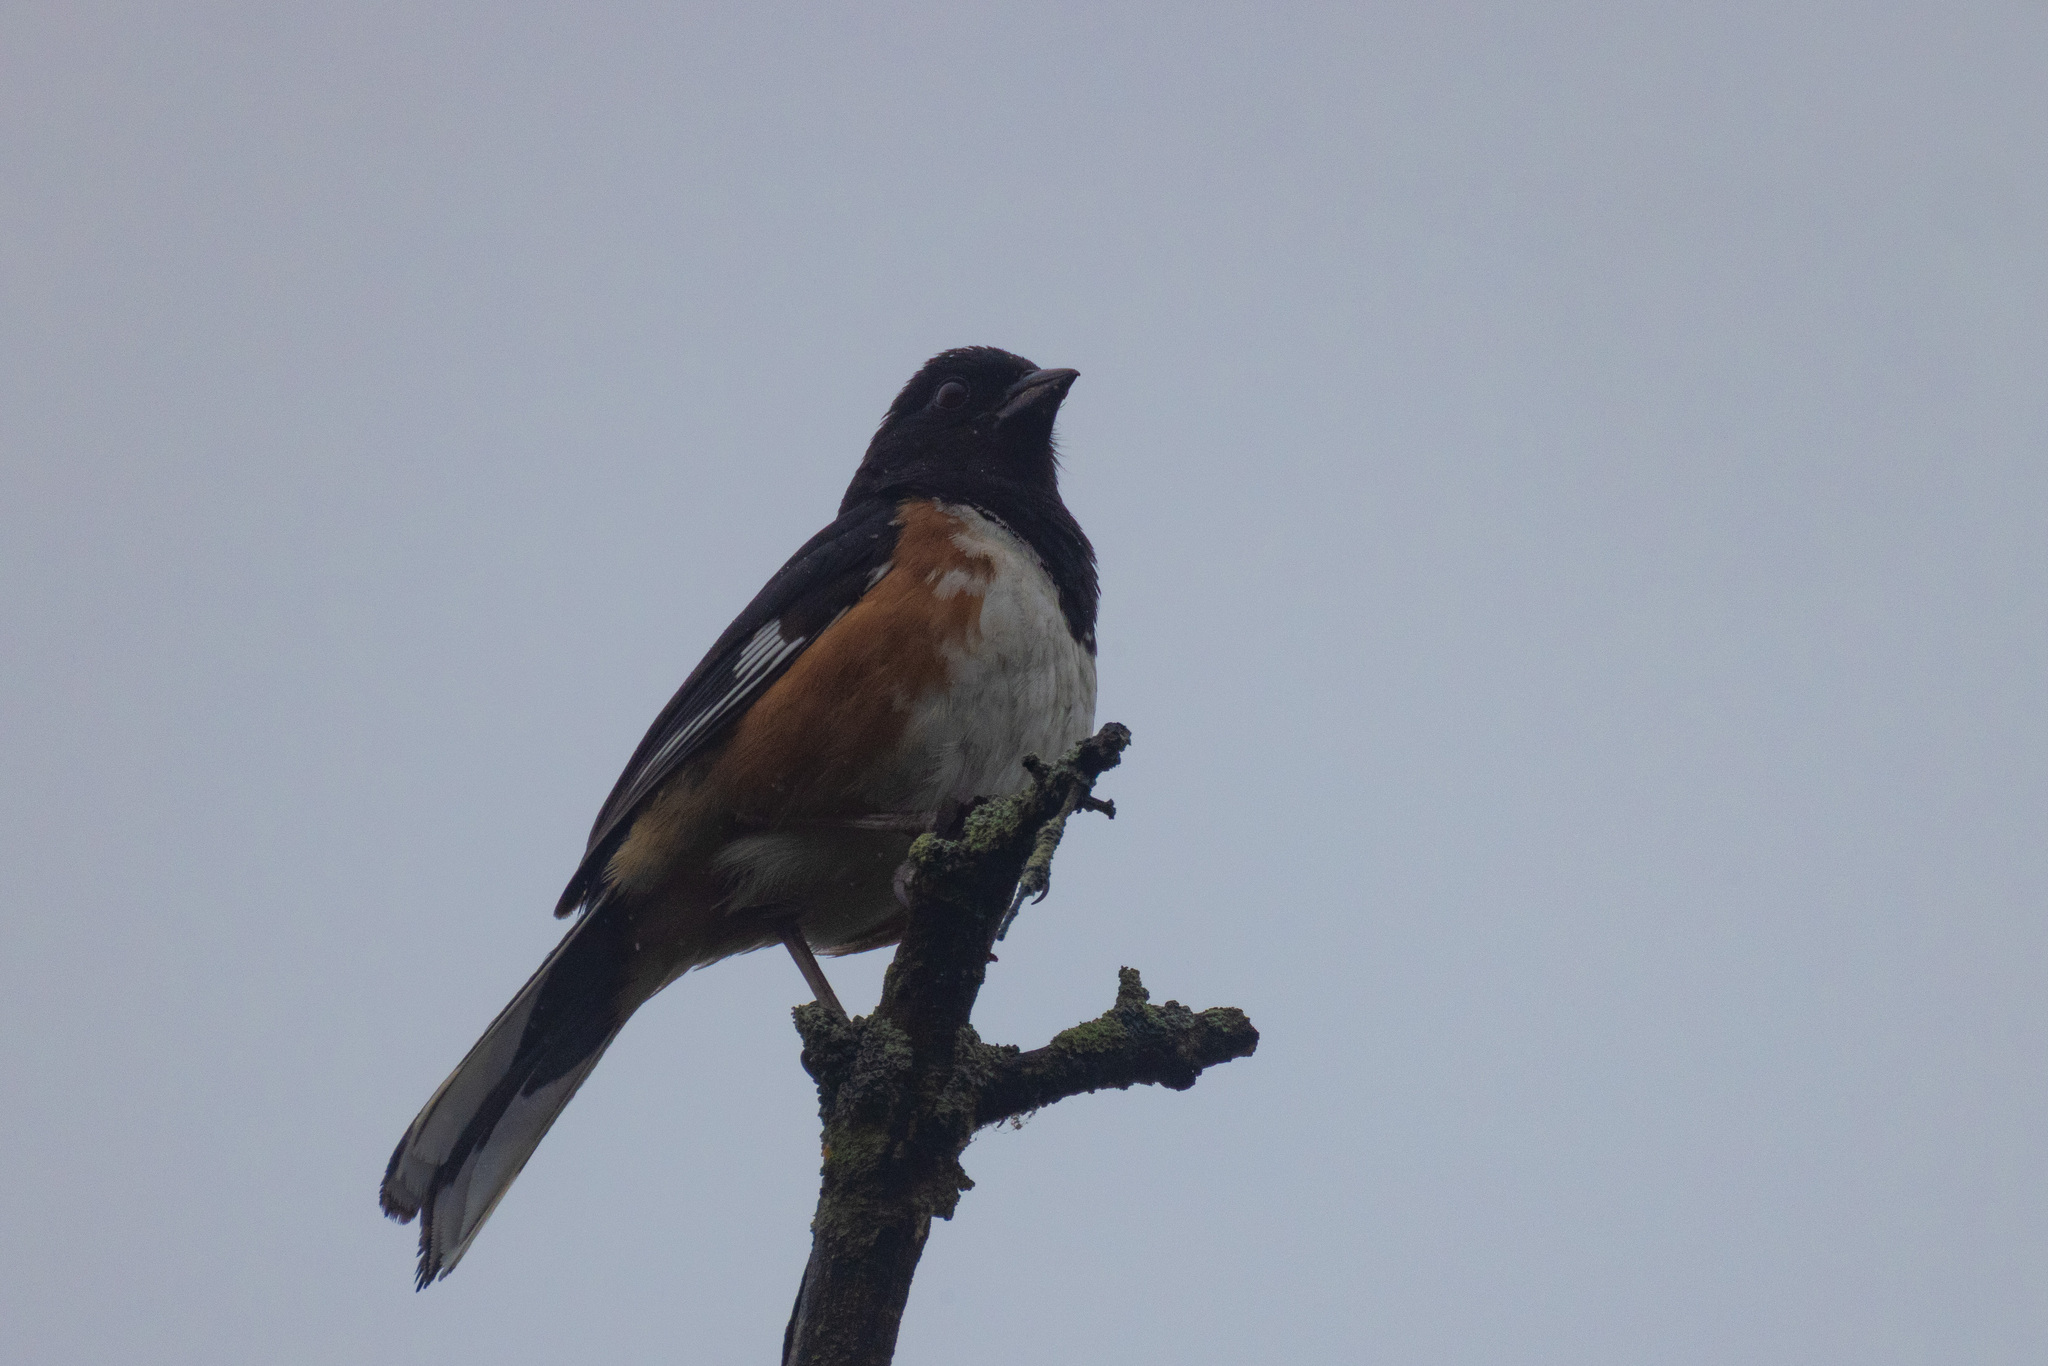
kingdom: Animalia
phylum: Chordata
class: Aves
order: Passeriformes
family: Passerellidae
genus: Pipilo
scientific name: Pipilo erythrophthalmus
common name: Eastern towhee
